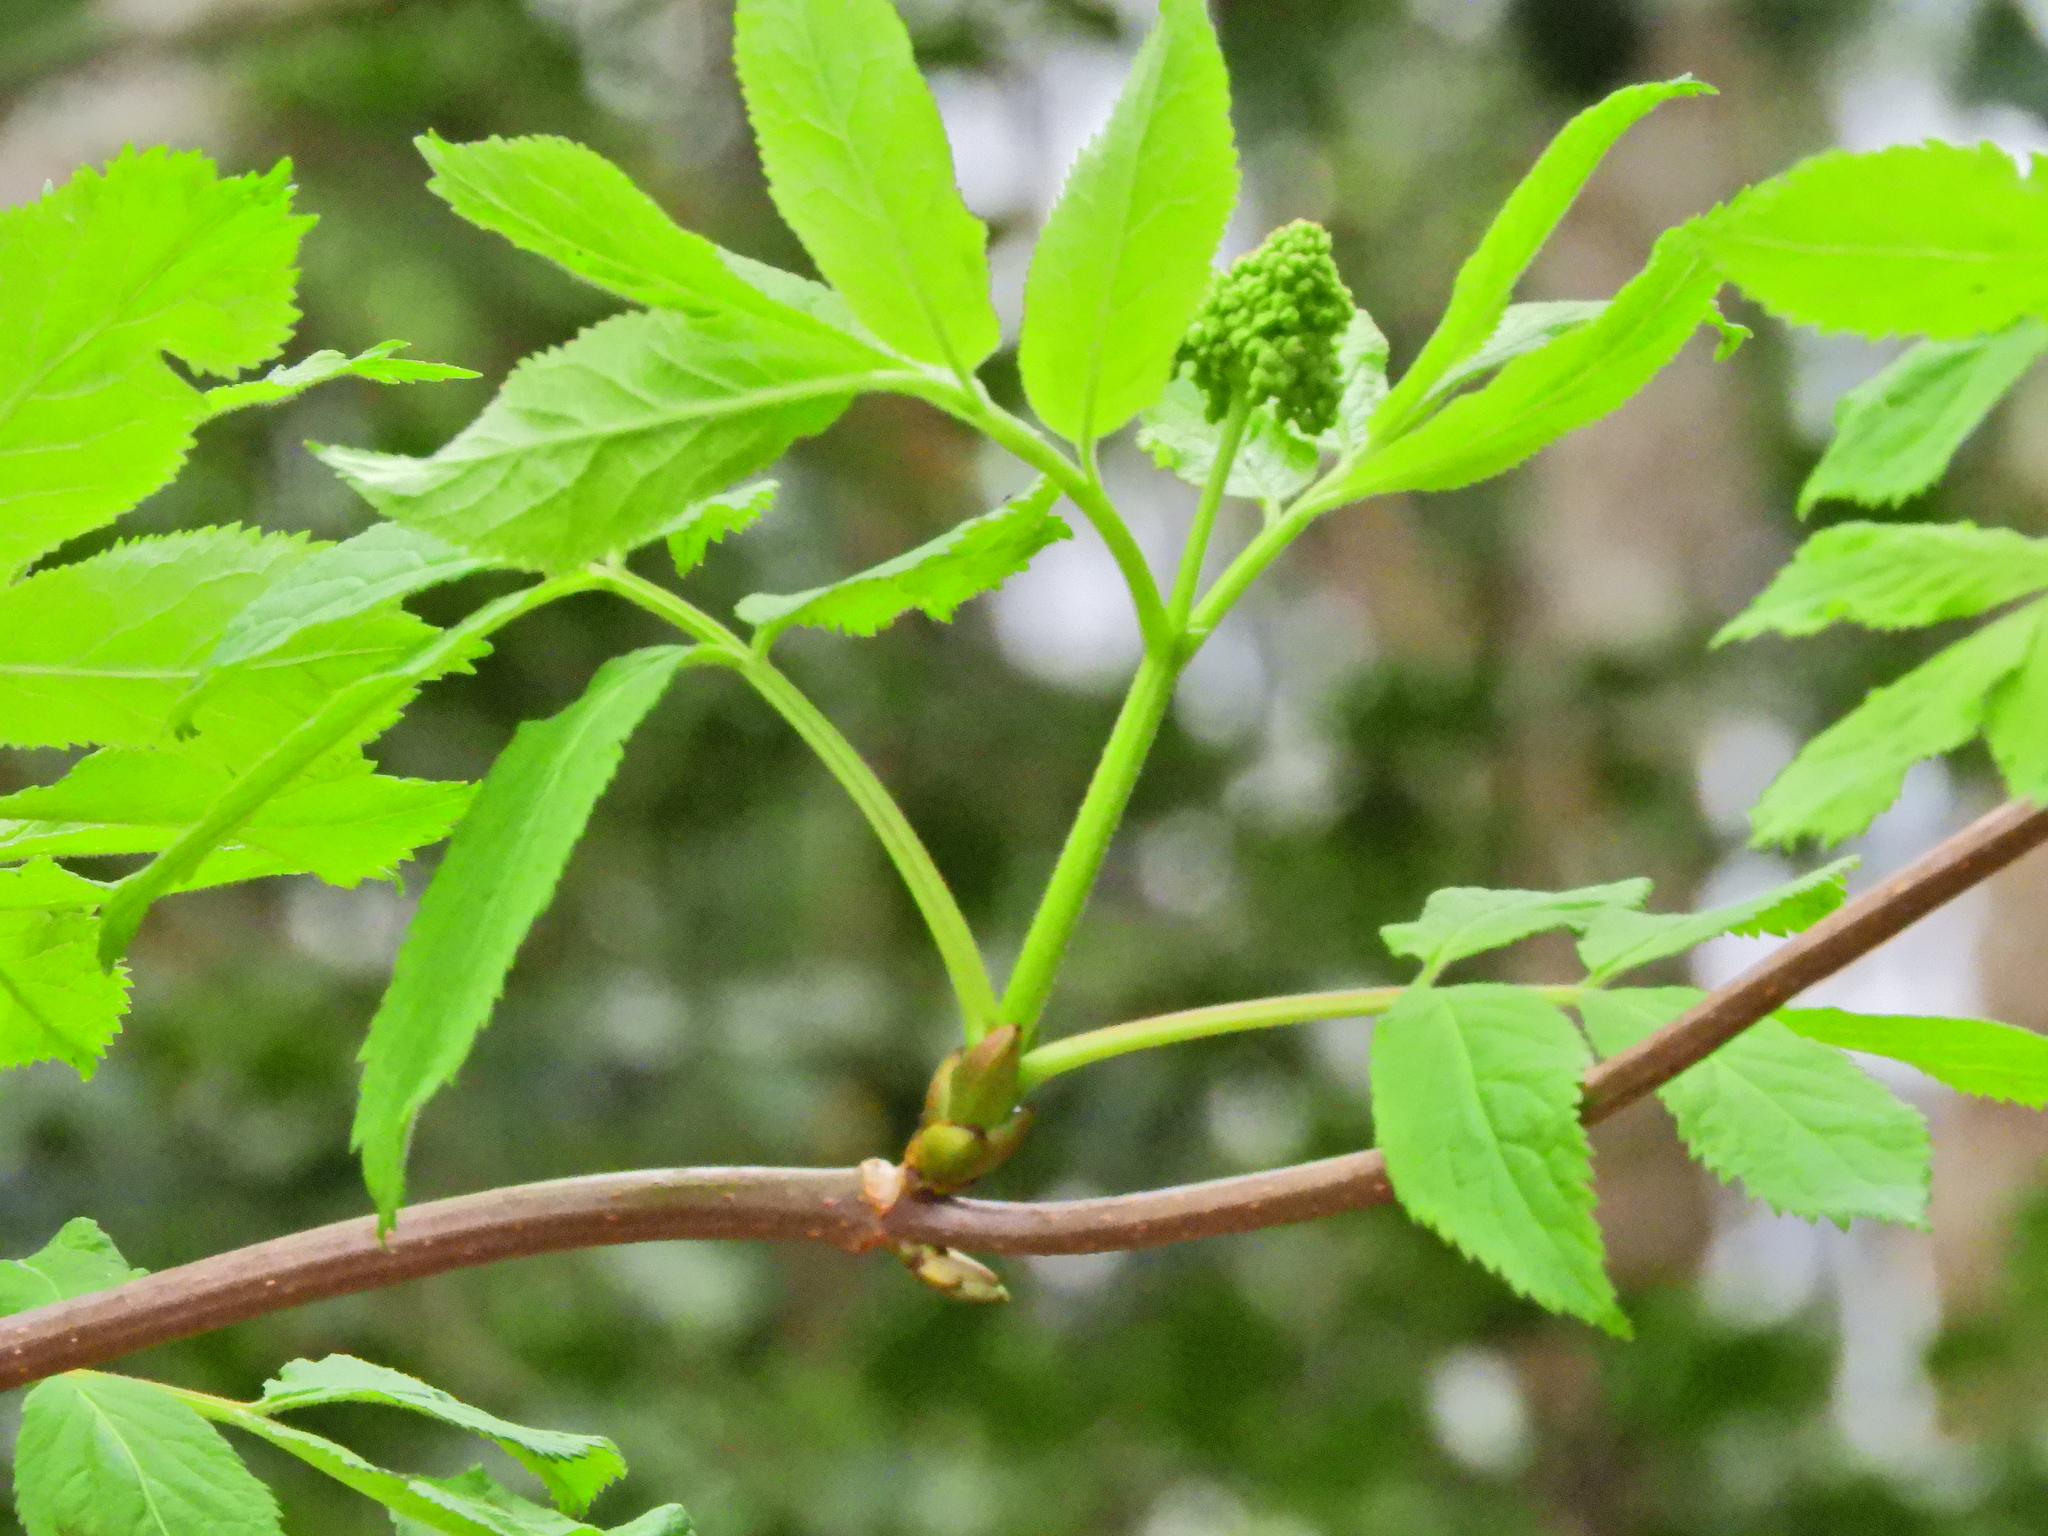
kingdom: Plantae
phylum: Tracheophyta
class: Magnoliopsida
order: Dipsacales
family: Viburnaceae
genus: Sambucus
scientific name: Sambucus racemosa
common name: Red-berried elder
